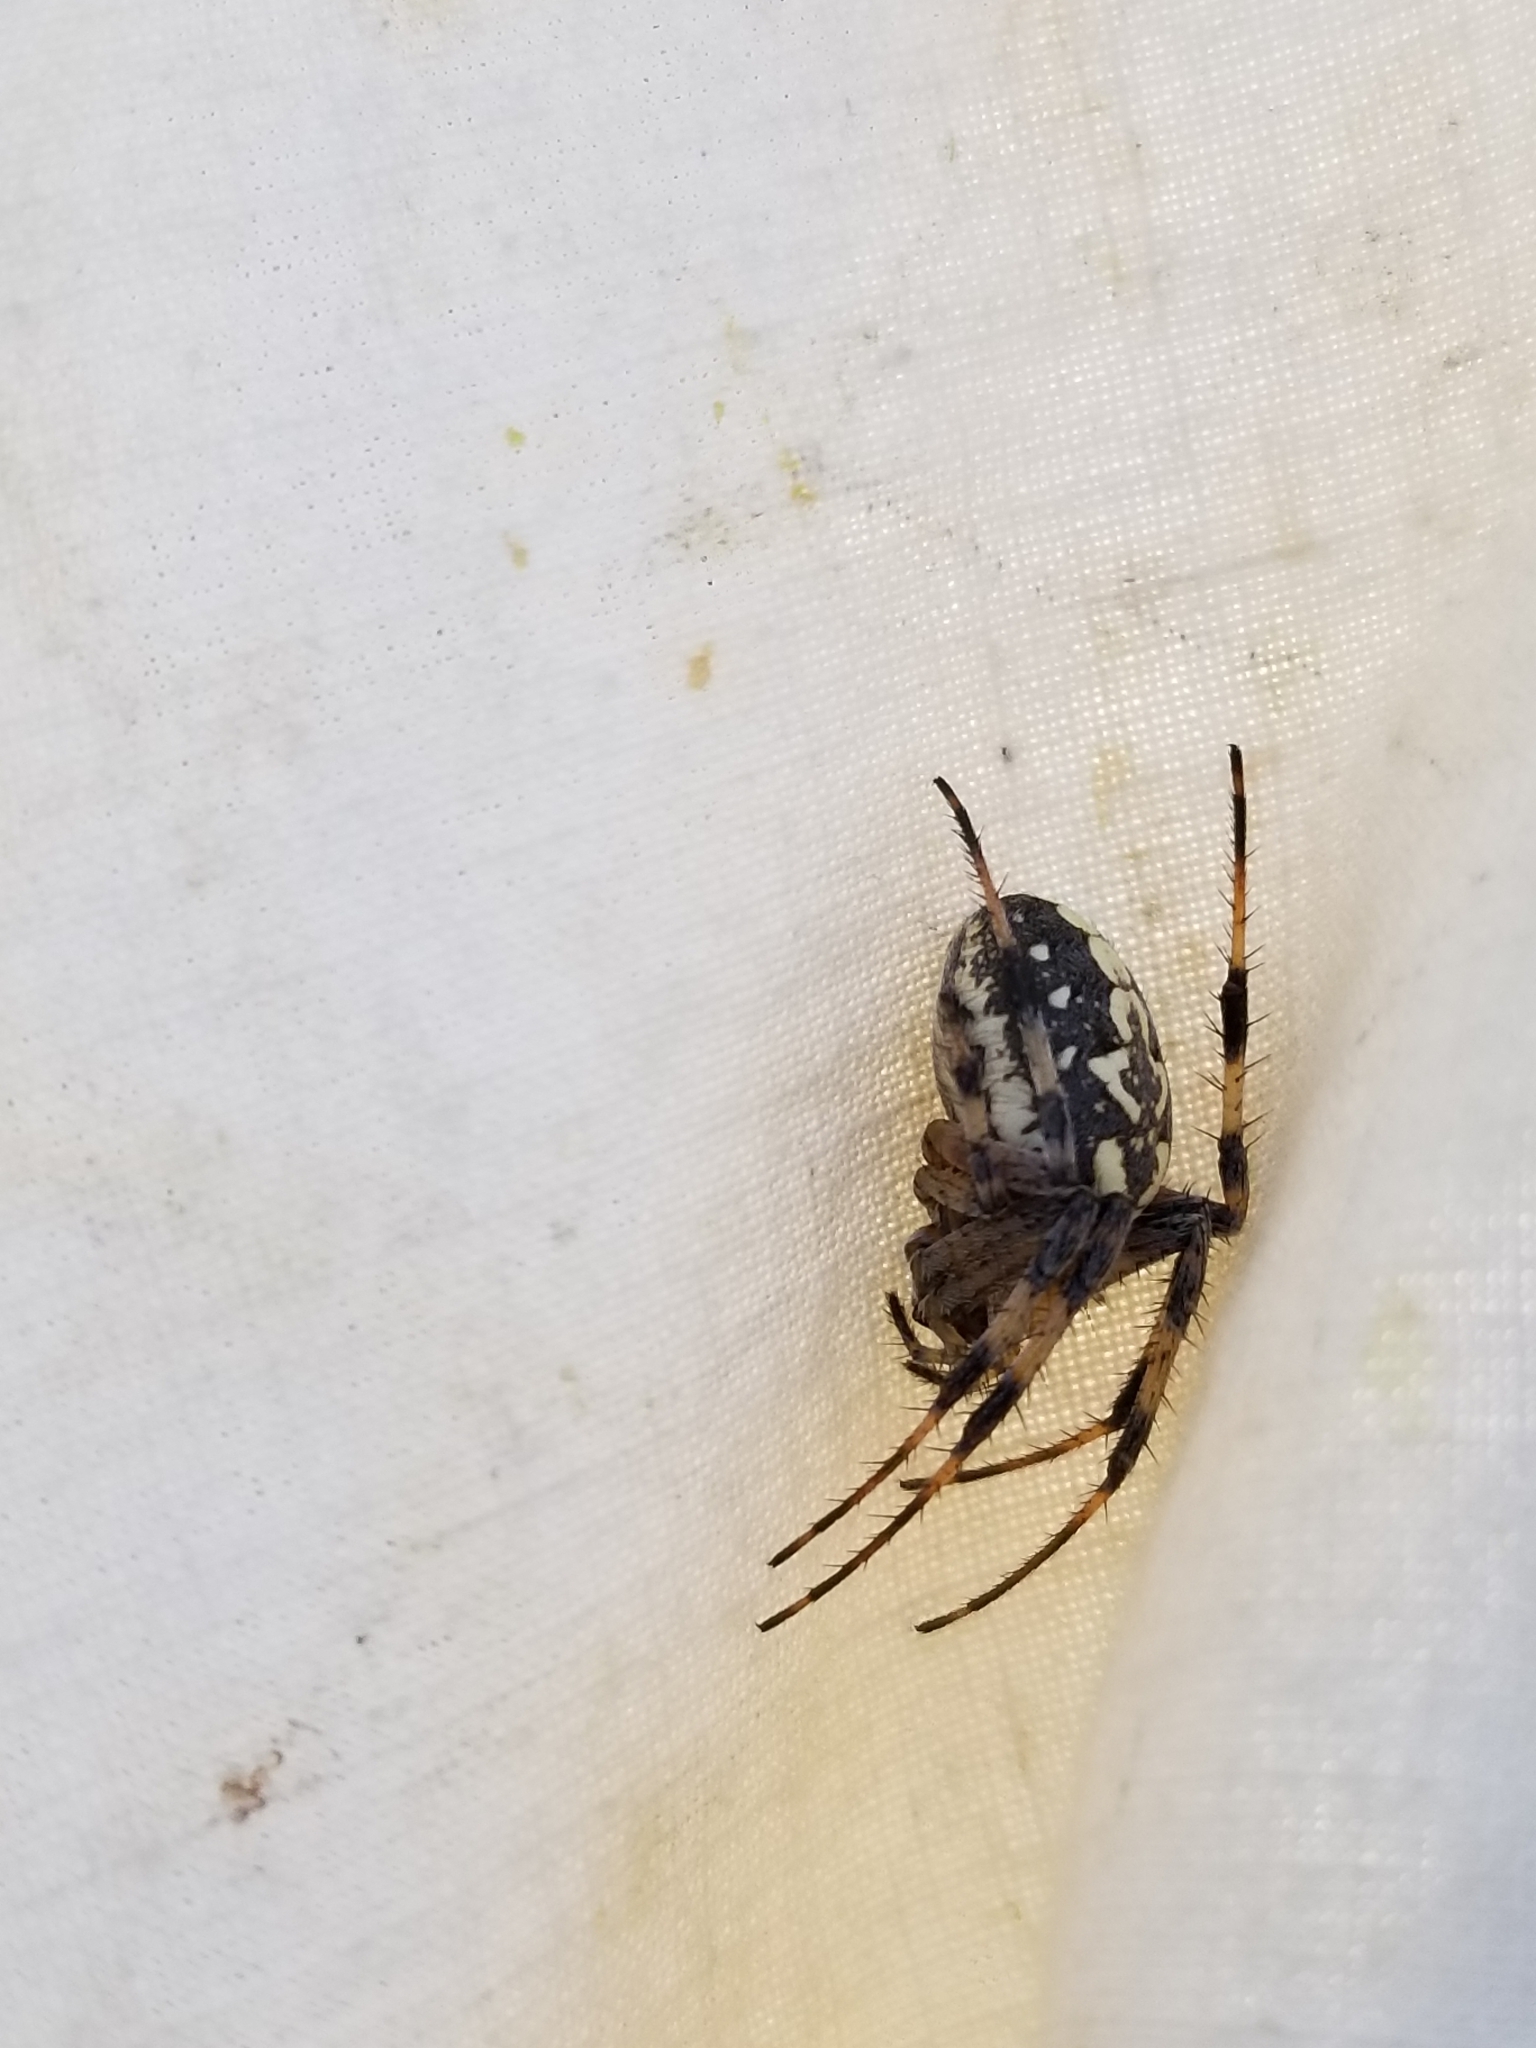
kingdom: Animalia
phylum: Arthropoda
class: Arachnida
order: Araneae
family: Araneidae
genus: Neoscona
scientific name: Neoscona oaxacensis
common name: Orb weavers
